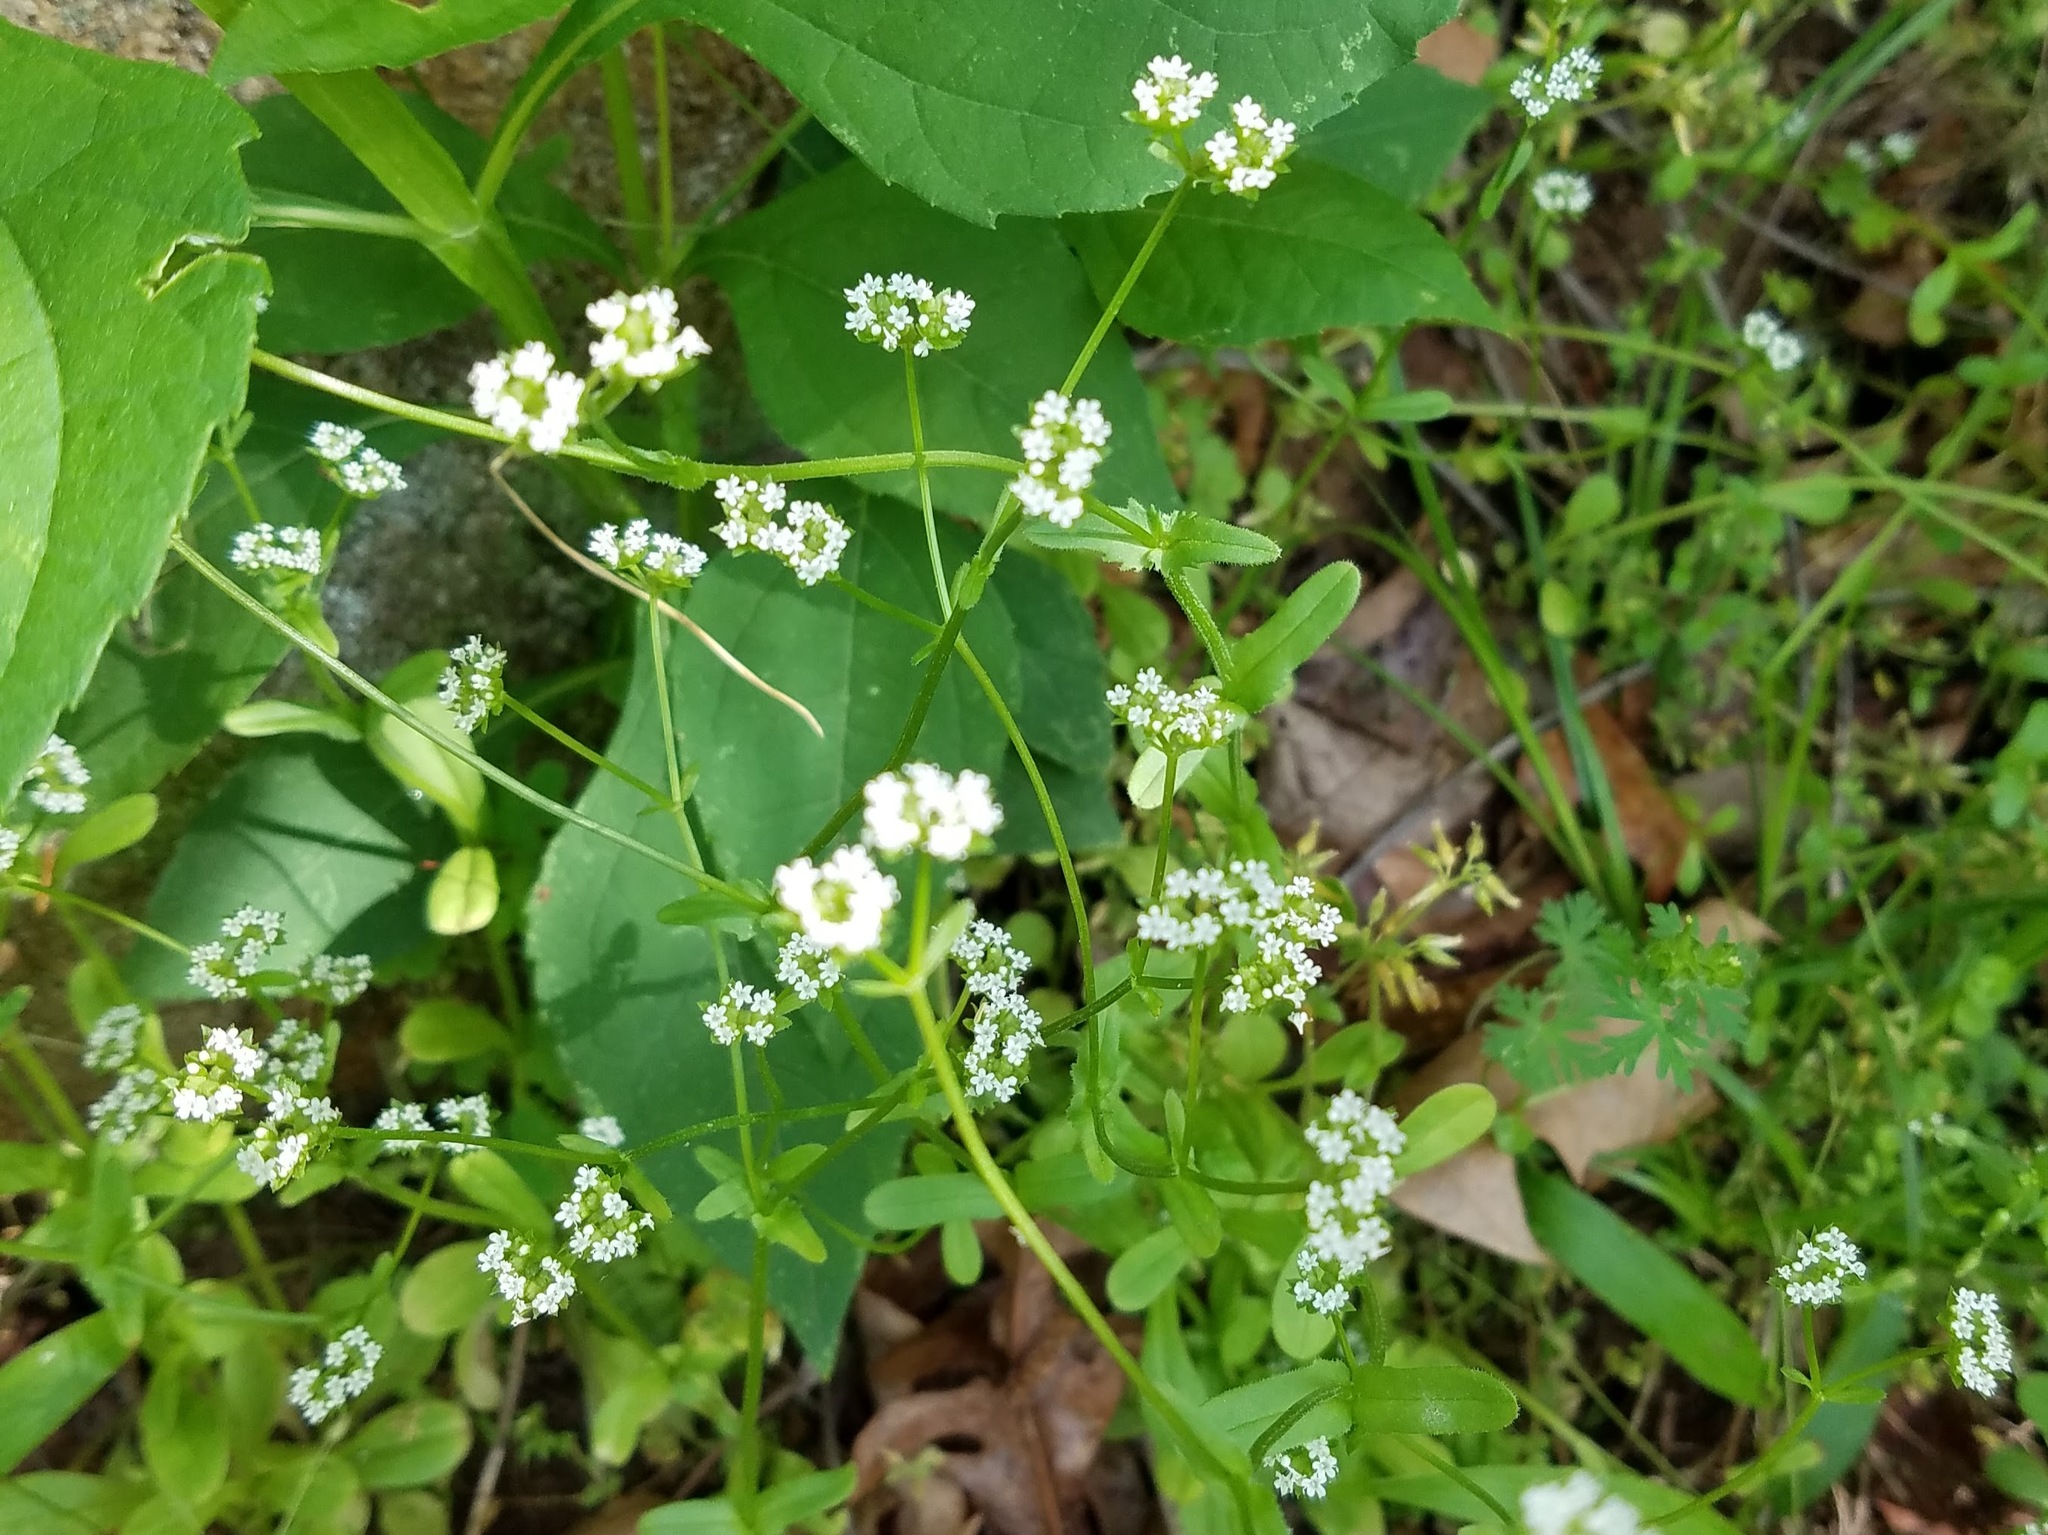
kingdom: Plantae
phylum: Tracheophyta
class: Magnoliopsida
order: Dipsacales
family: Caprifoliaceae
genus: Valerianella
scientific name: Valerianella radiata
